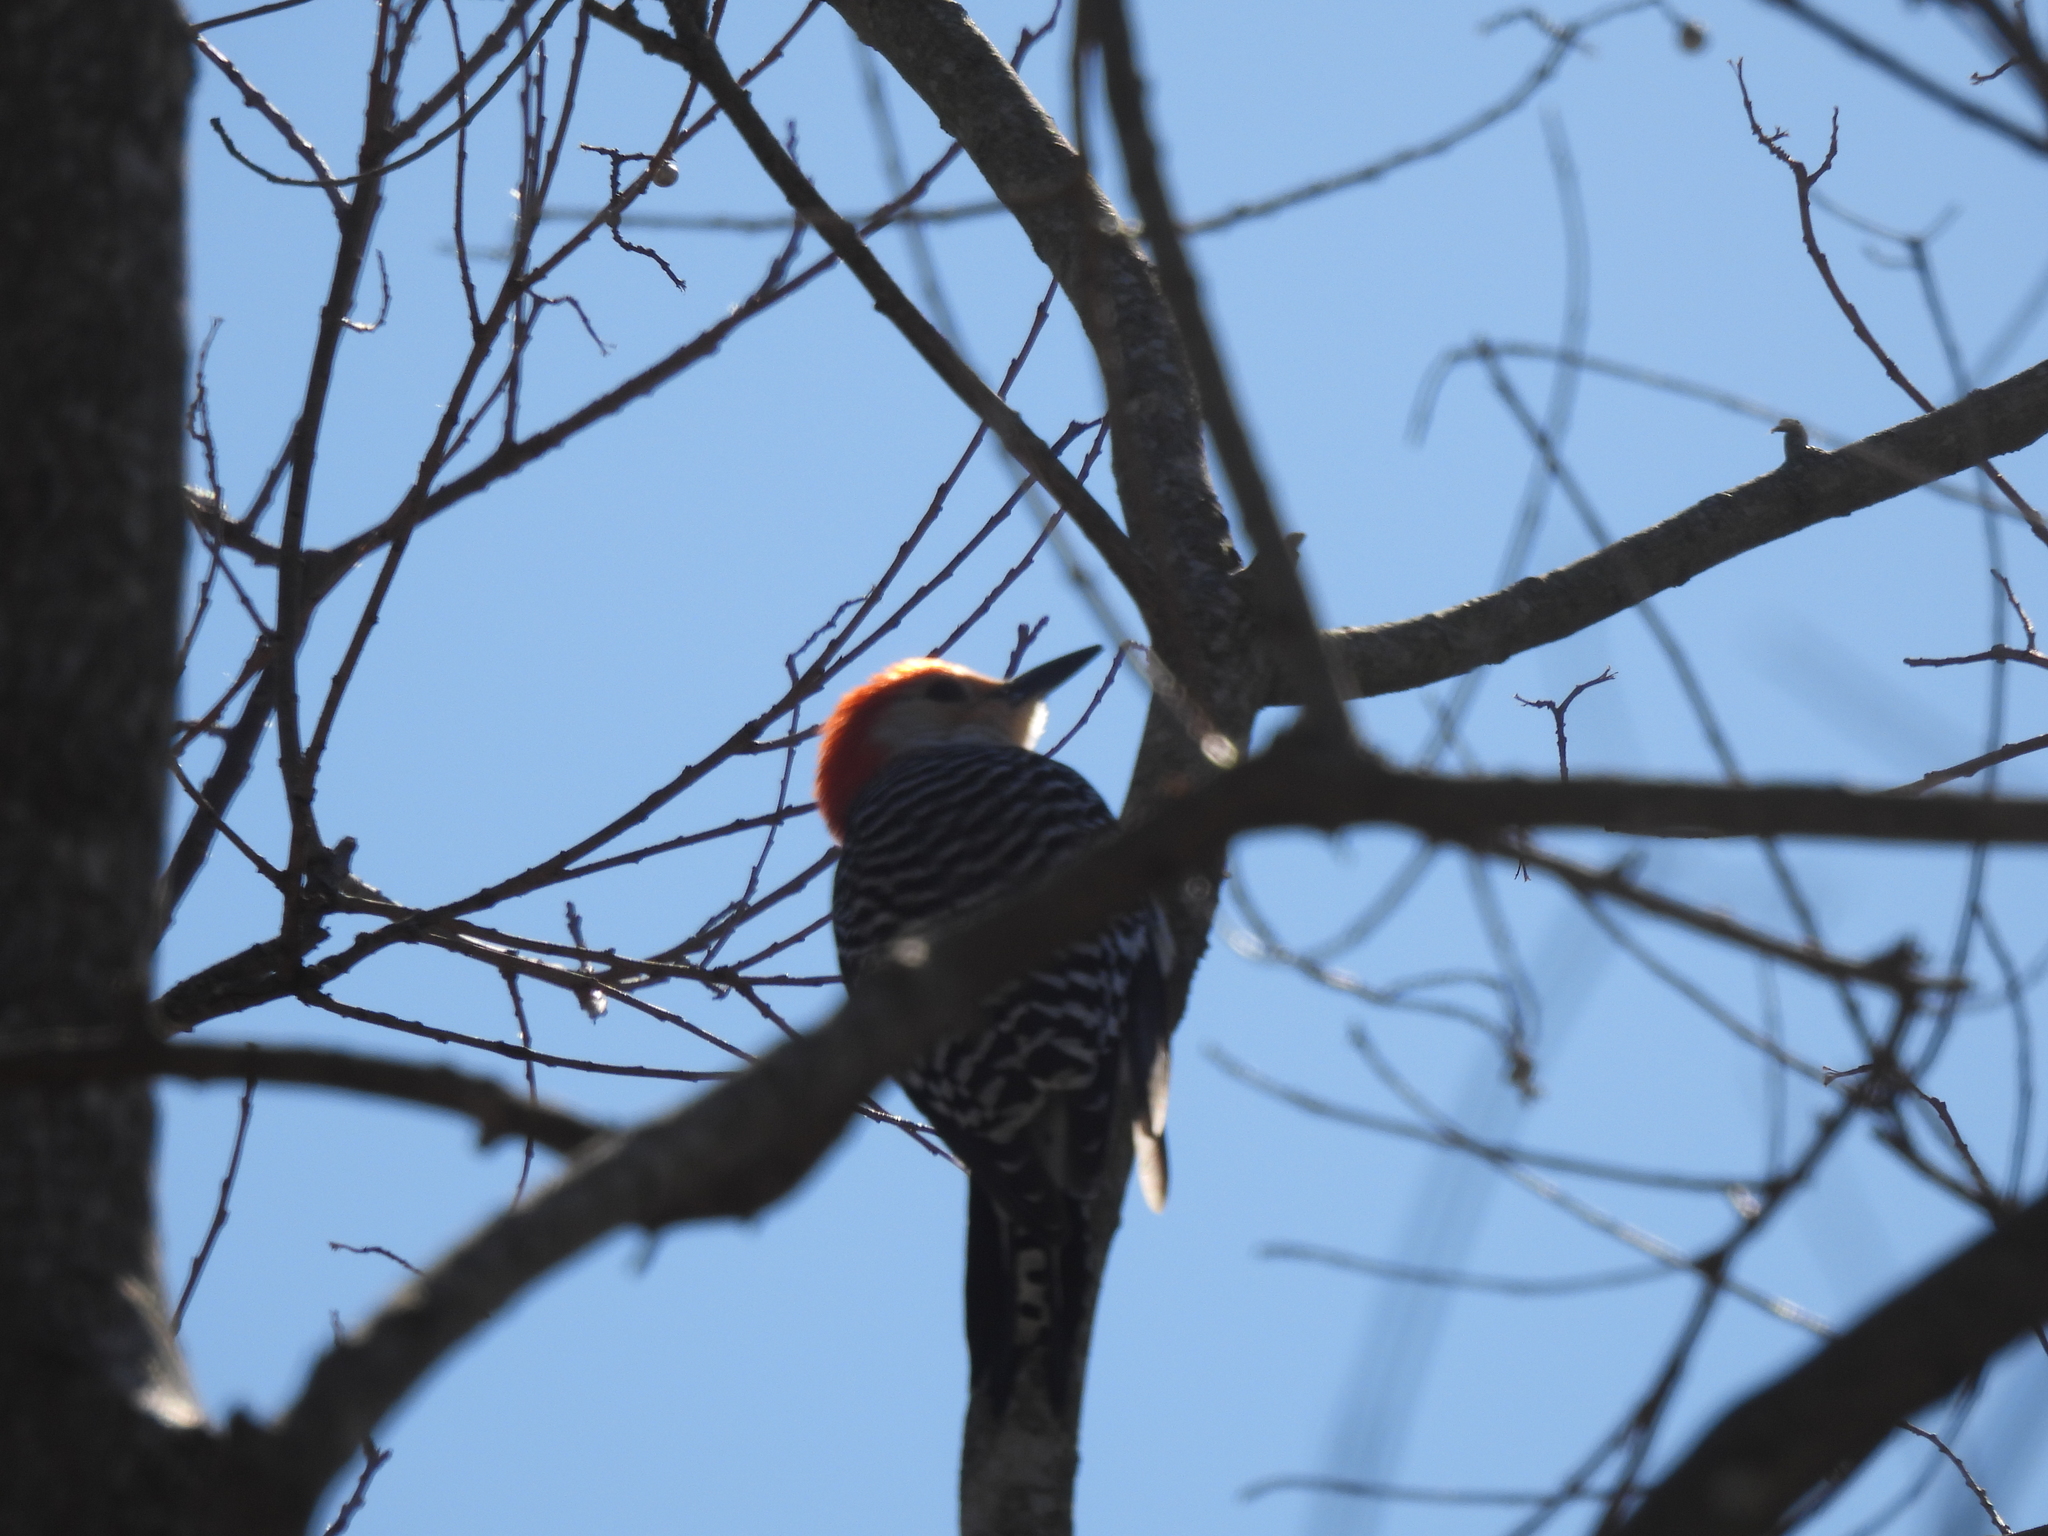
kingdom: Animalia
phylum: Chordata
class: Aves
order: Piciformes
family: Picidae
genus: Melanerpes
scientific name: Melanerpes carolinus
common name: Red-bellied woodpecker
